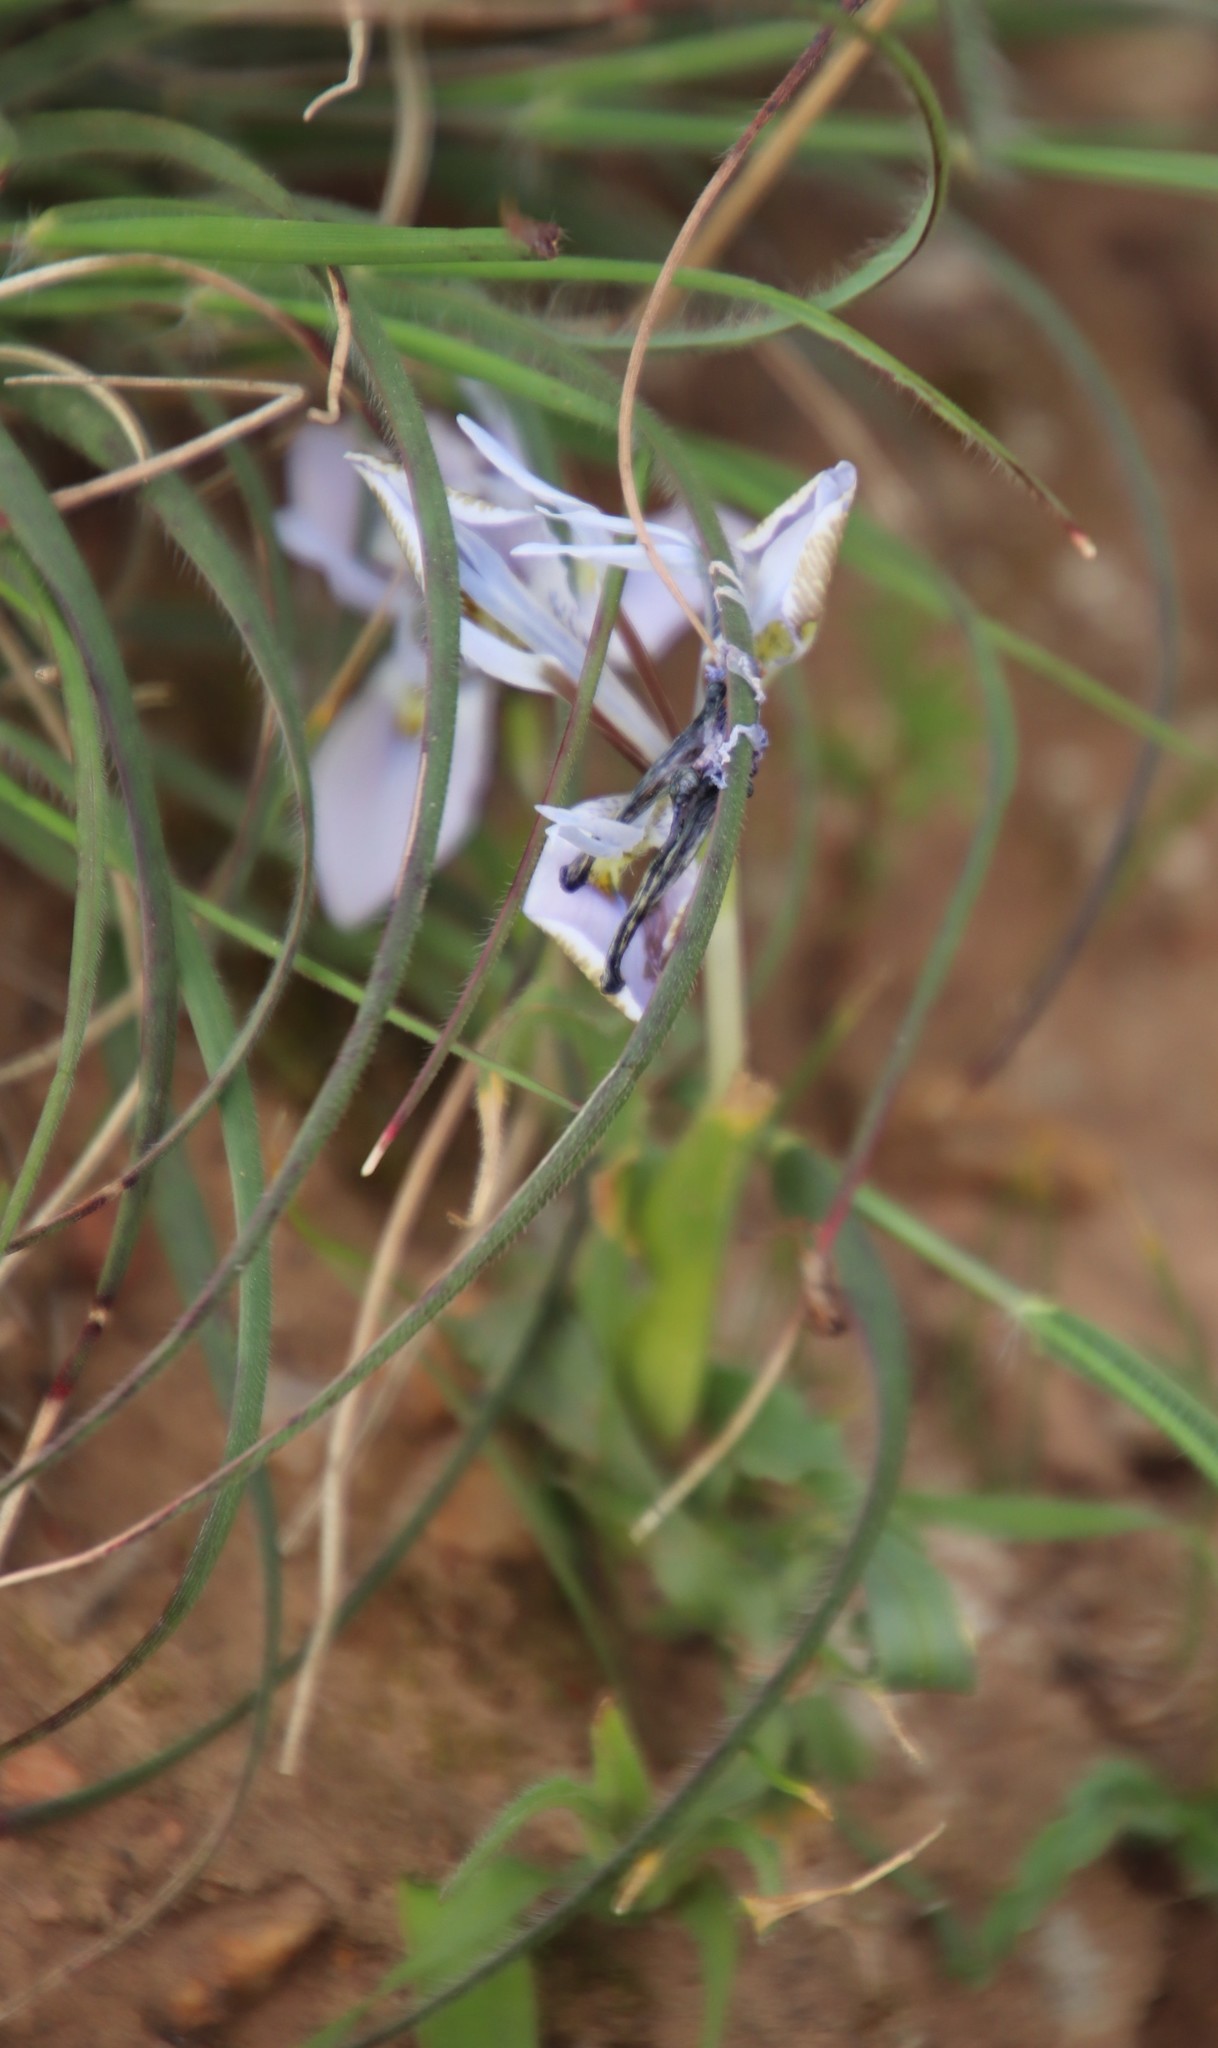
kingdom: Plantae
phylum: Tracheophyta
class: Liliopsida
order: Asparagales
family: Iridaceae
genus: Moraea
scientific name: Moraea ciliata
